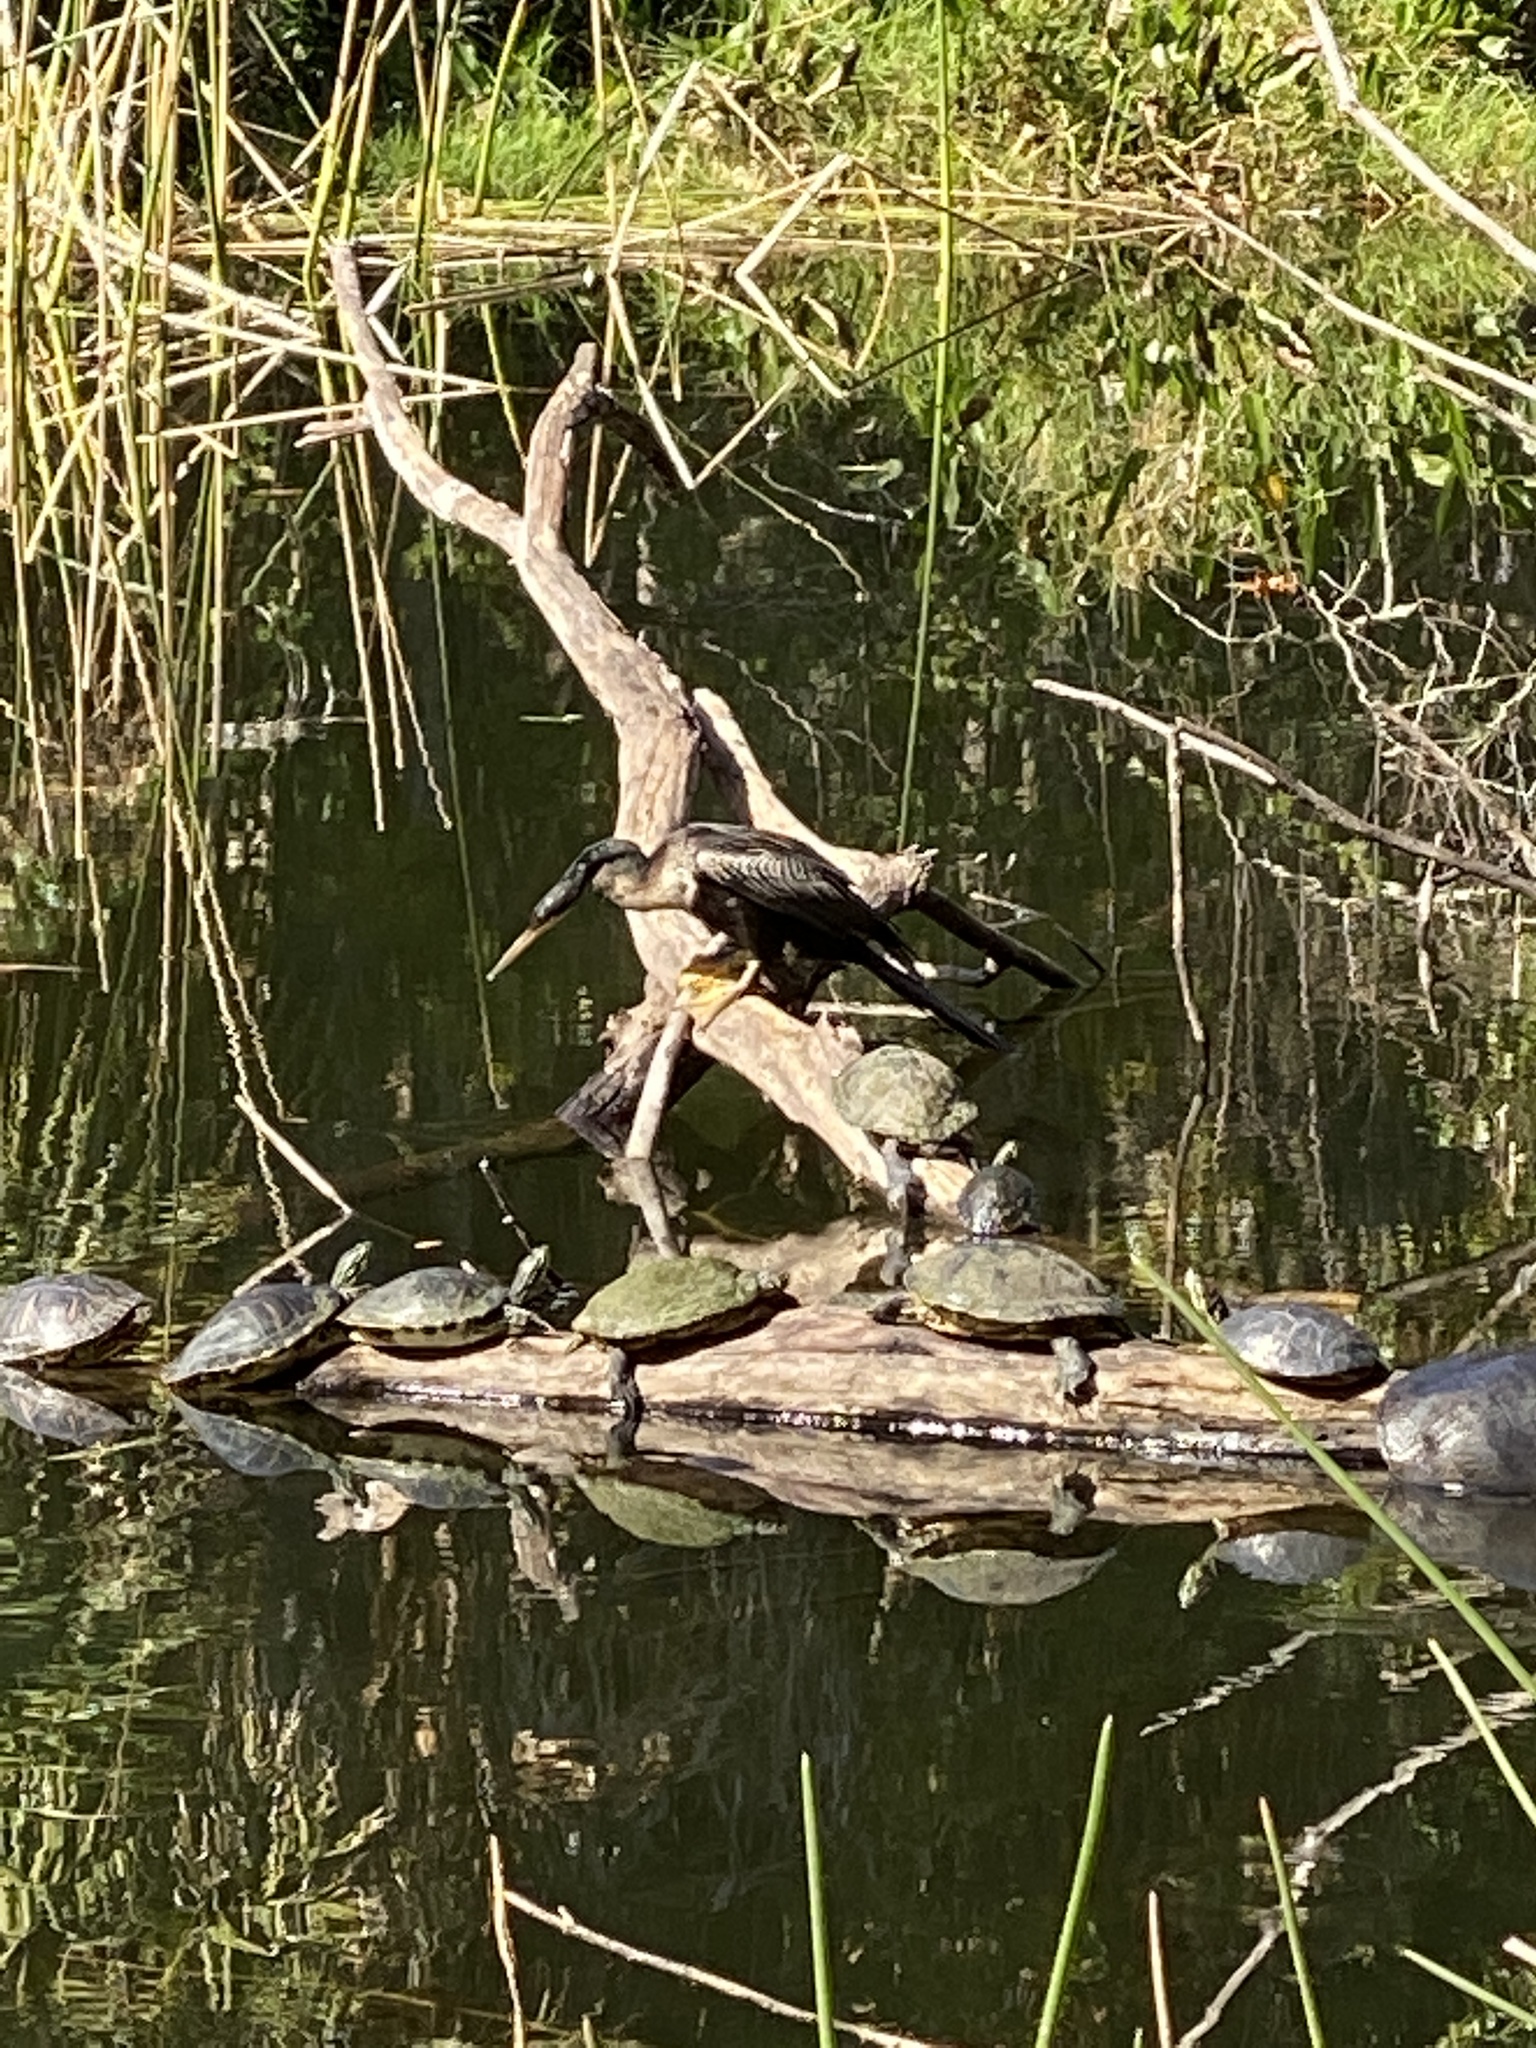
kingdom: Animalia
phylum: Chordata
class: Aves
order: Suliformes
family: Anhingidae
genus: Anhinga
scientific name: Anhinga anhinga
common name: Anhinga
